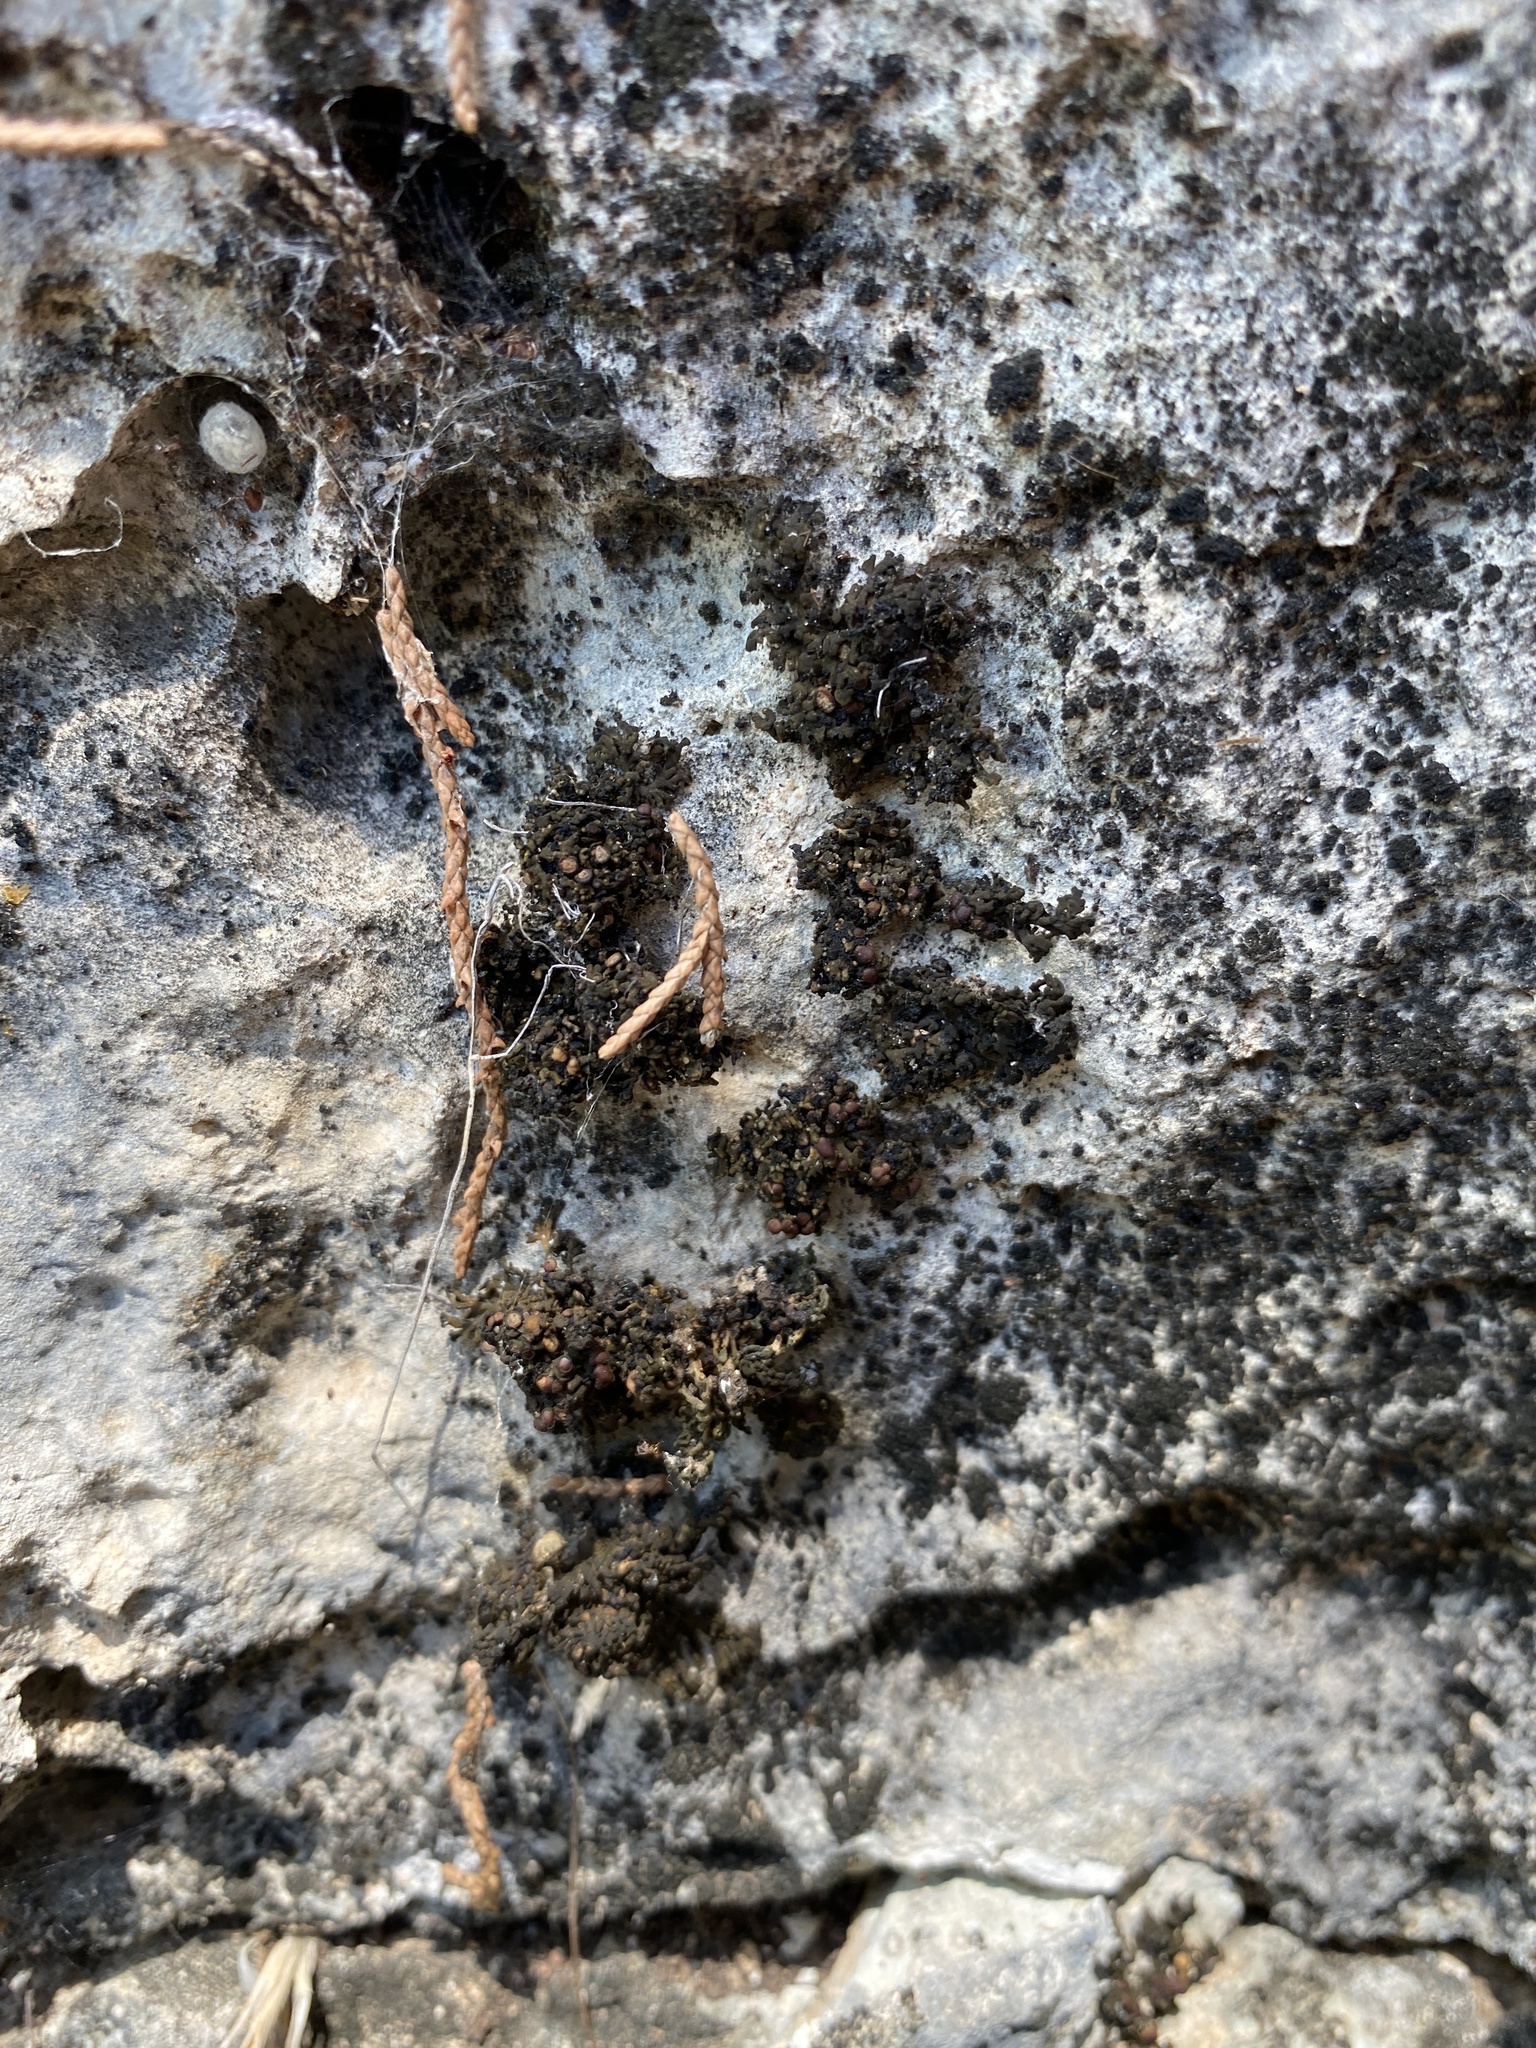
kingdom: Fungi
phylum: Ascomycota
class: Lecanoromycetes
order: Peltigerales
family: Collemataceae
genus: Enchylium
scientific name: Enchylium polycarpon
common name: Shaly jelly lichen
